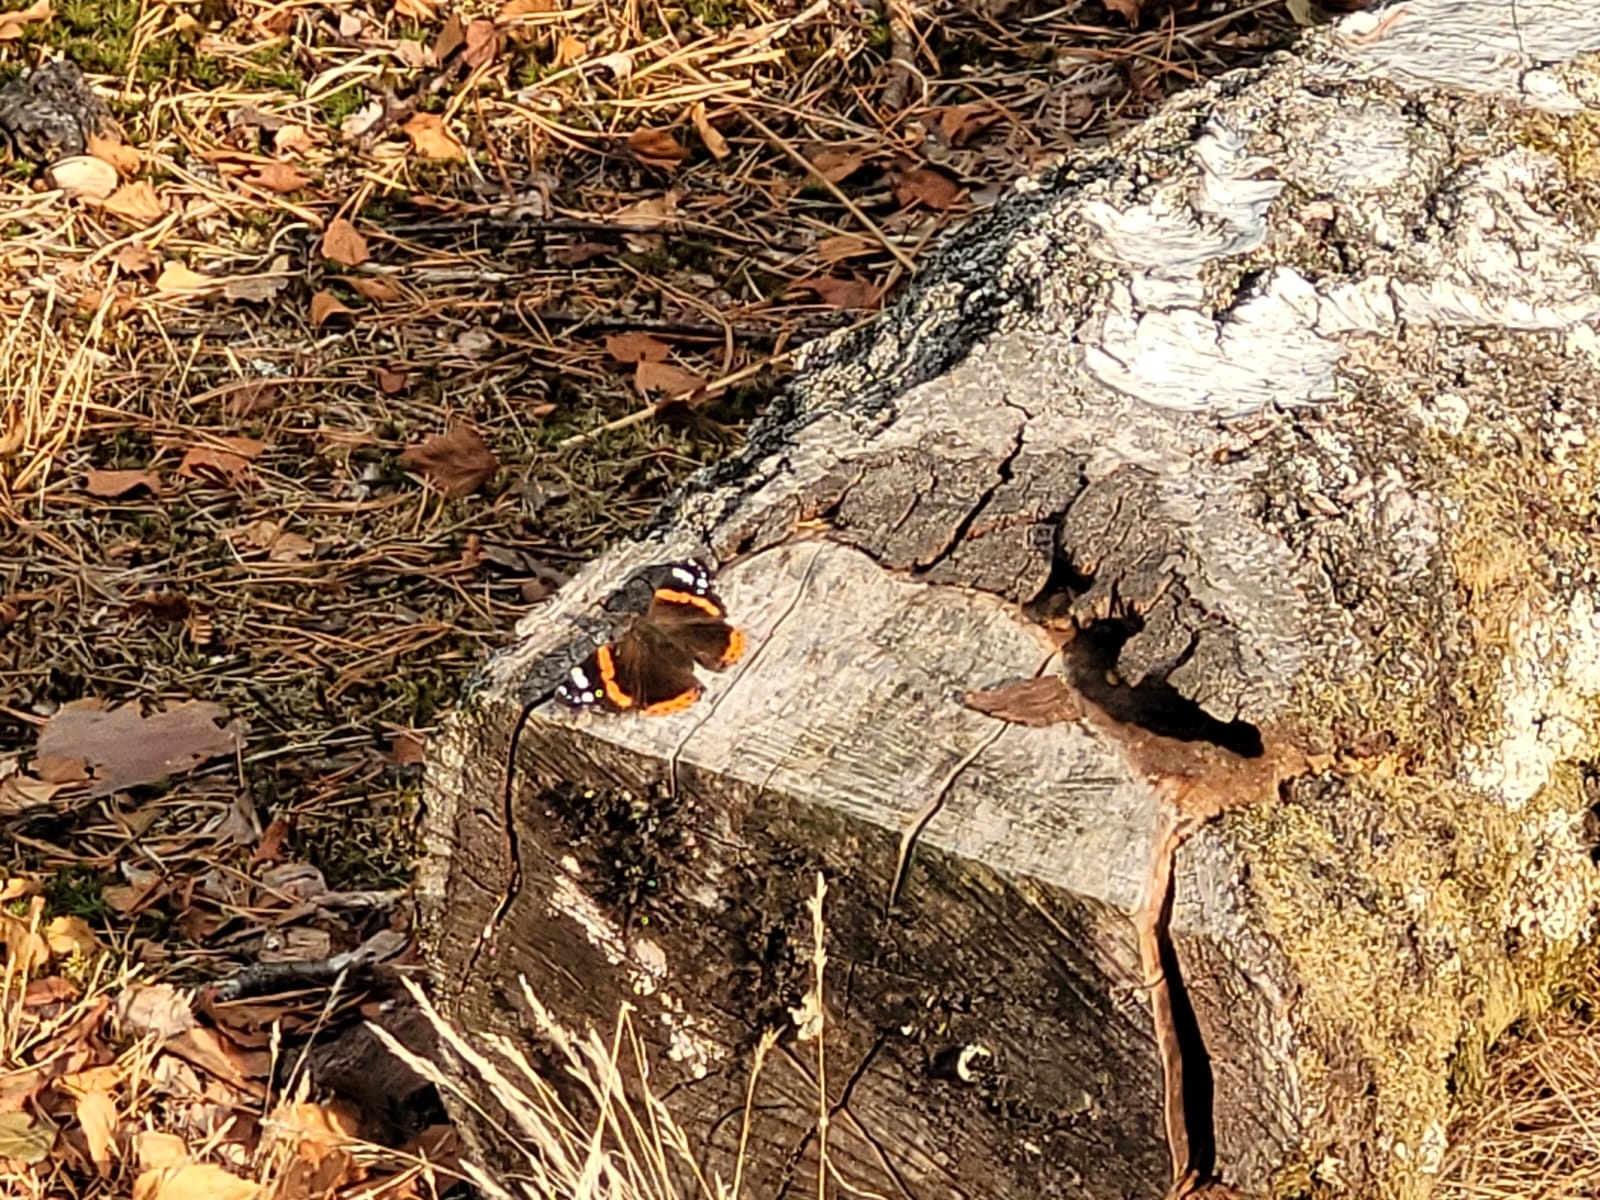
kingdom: Animalia
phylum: Arthropoda
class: Insecta
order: Lepidoptera
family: Nymphalidae
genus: Vanessa
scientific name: Vanessa atalanta
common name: Red admiral
